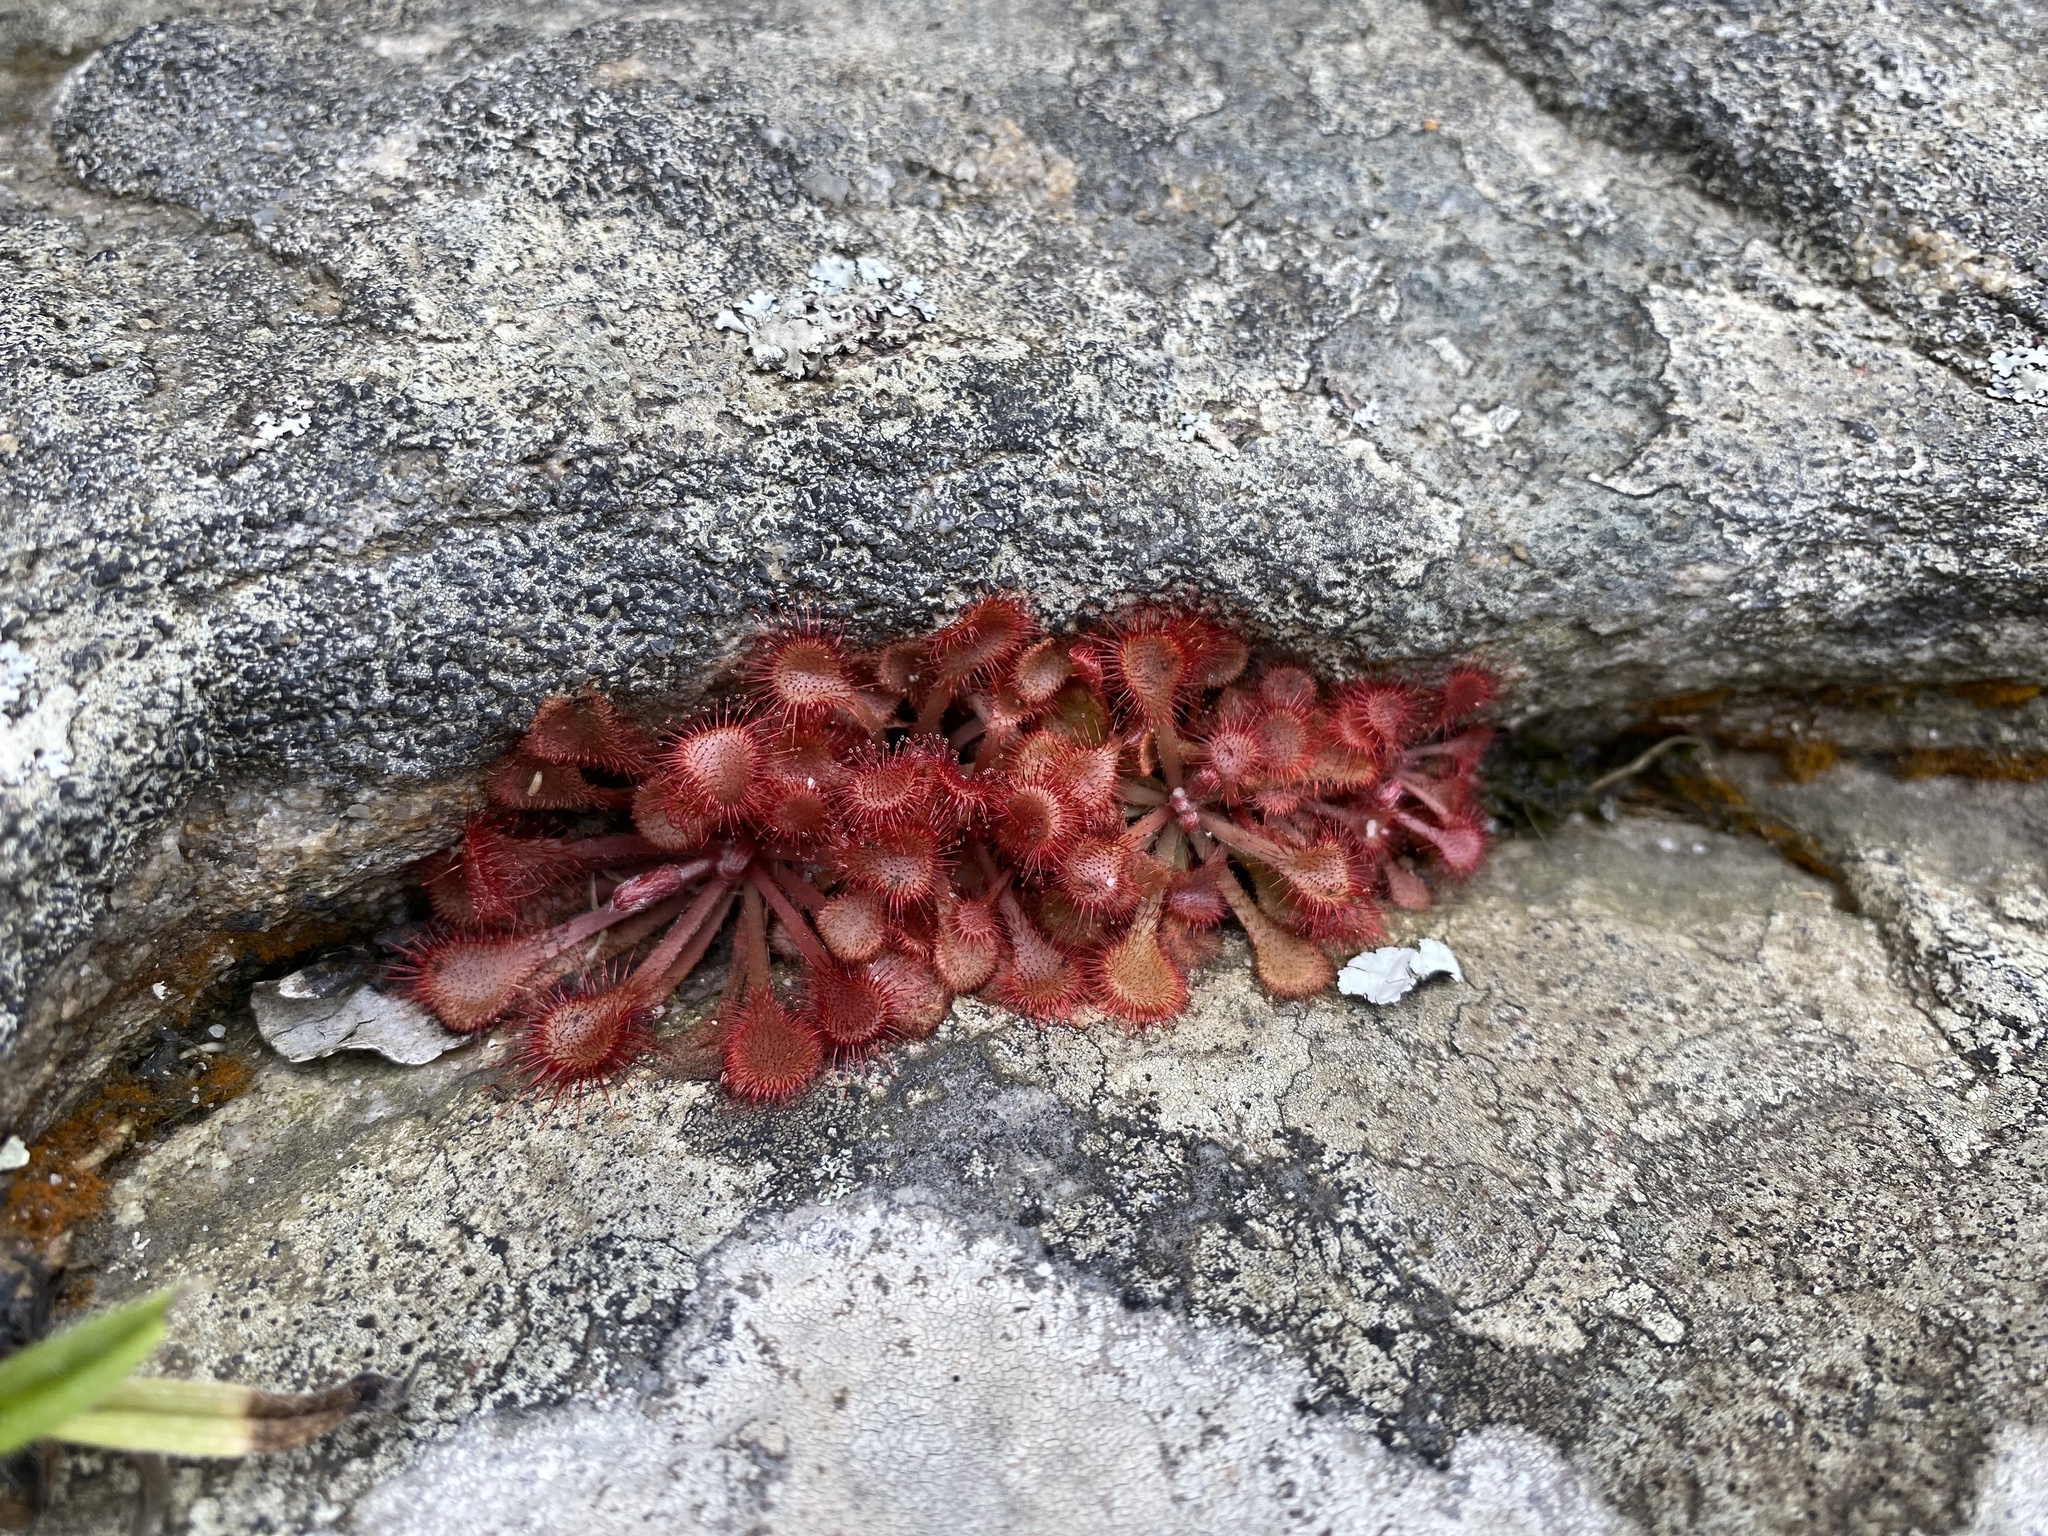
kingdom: Plantae
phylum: Tracheophyta
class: Magnoliopsida
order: Caryophyllales
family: Droseraceae
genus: Drosera
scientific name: Drosera natalensis
